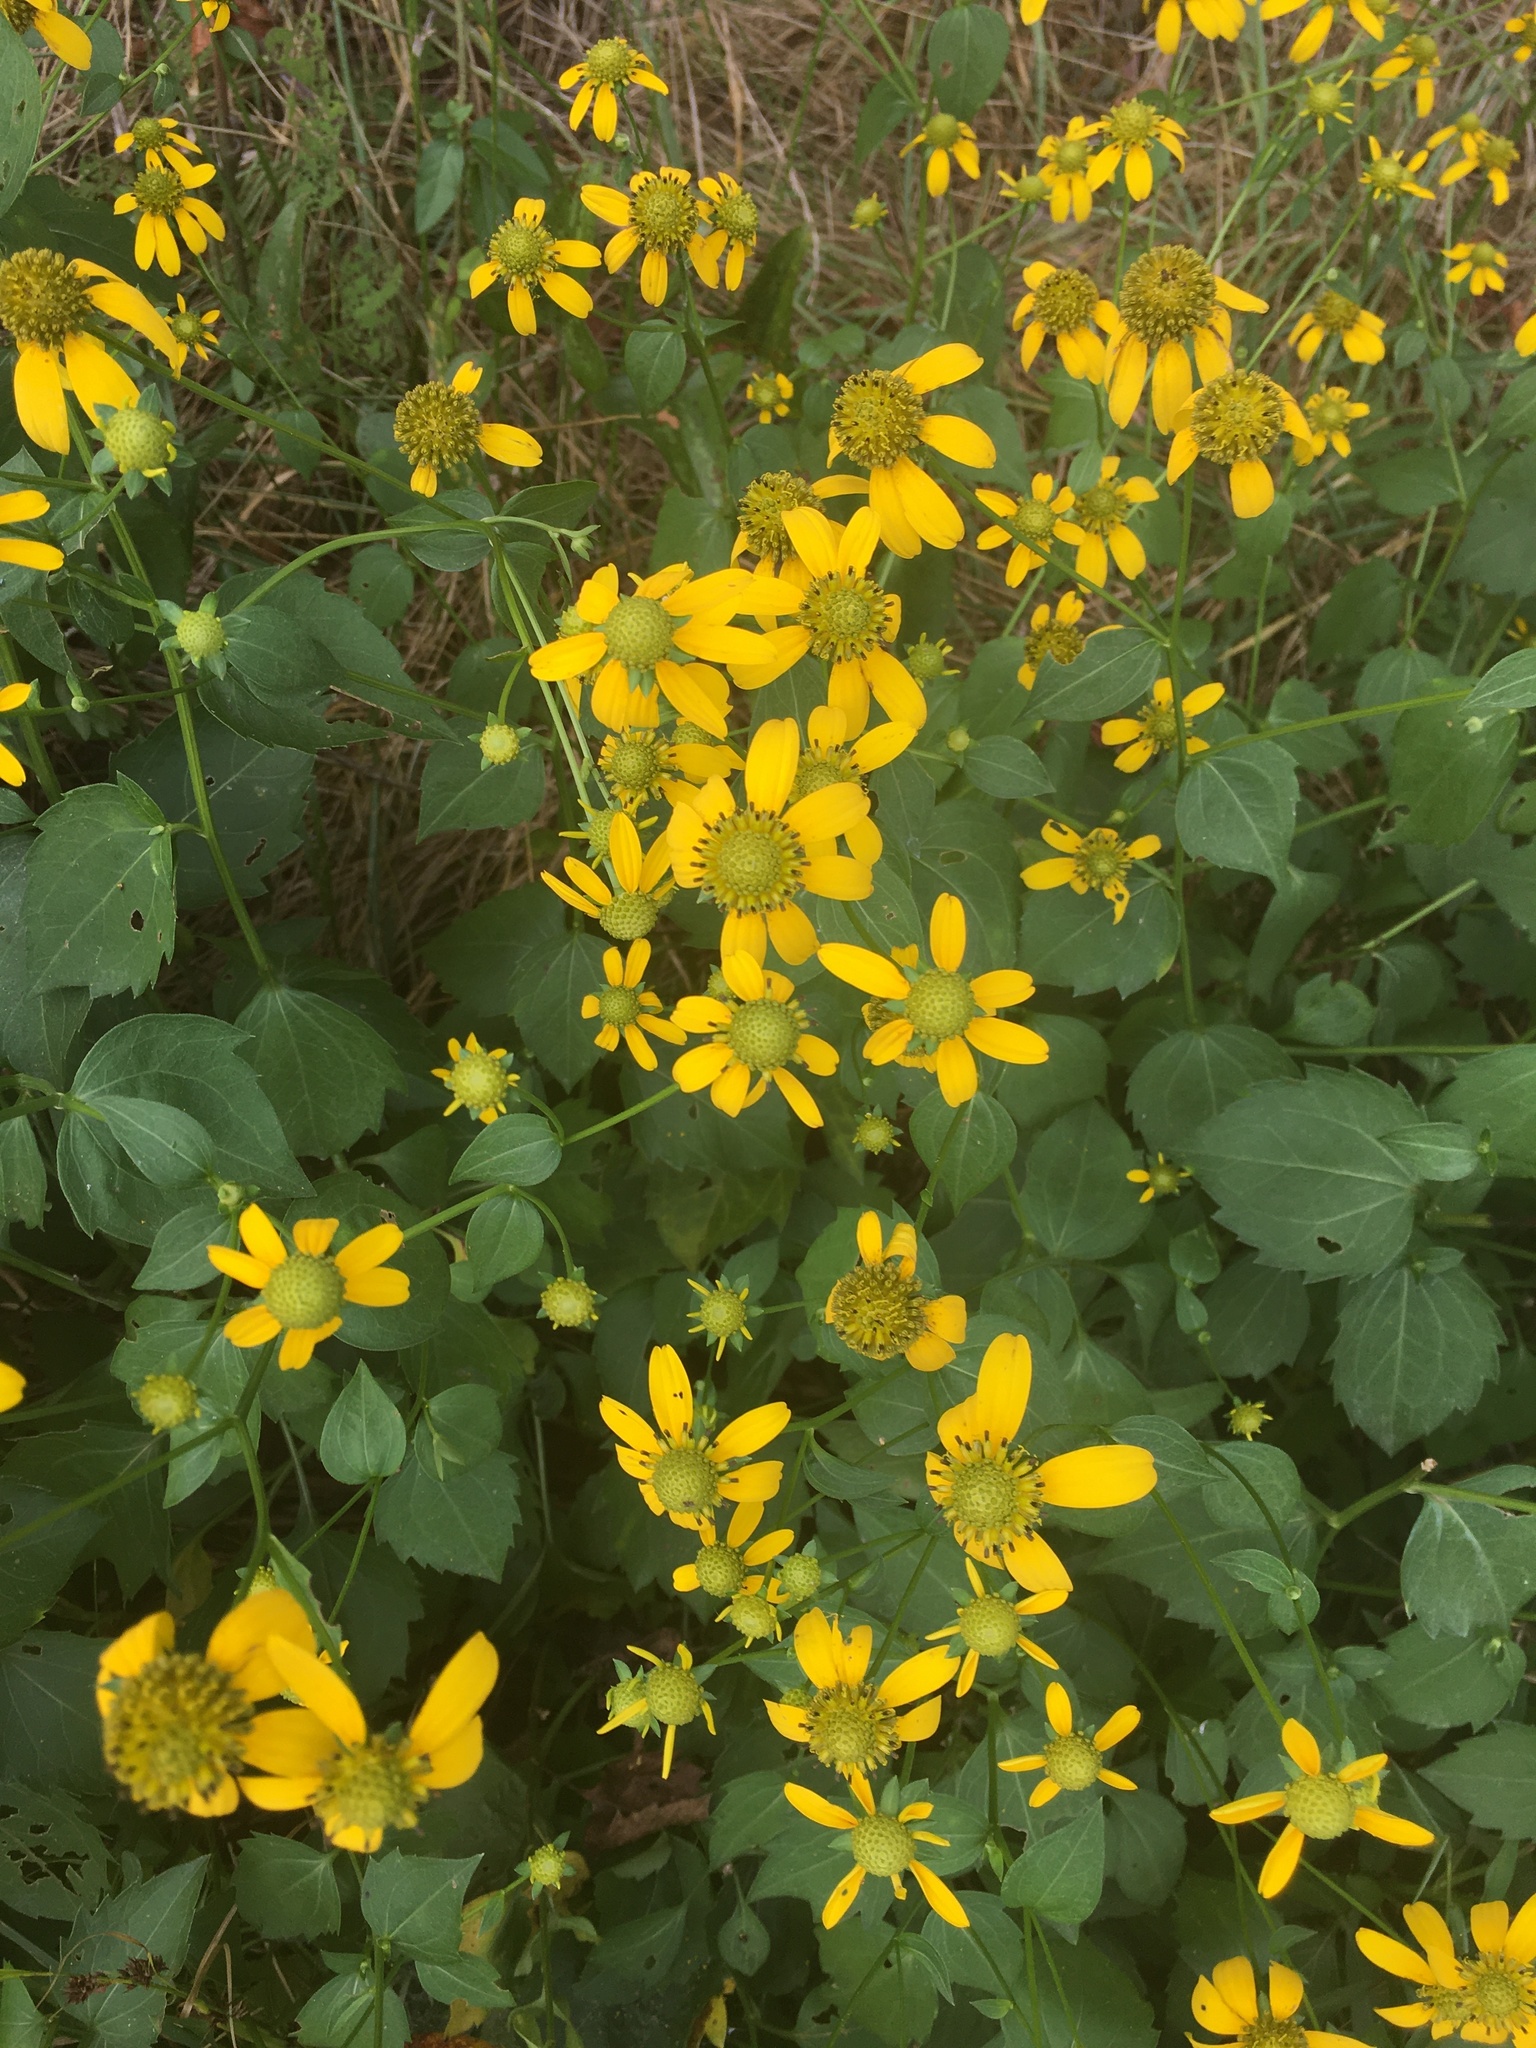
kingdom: Plantae
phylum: Tracheophyta
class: Magnoliopsida
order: Asterales
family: Asteraceae
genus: Rudbeckia
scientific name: Rudbeckia laciniata
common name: Coneflower
